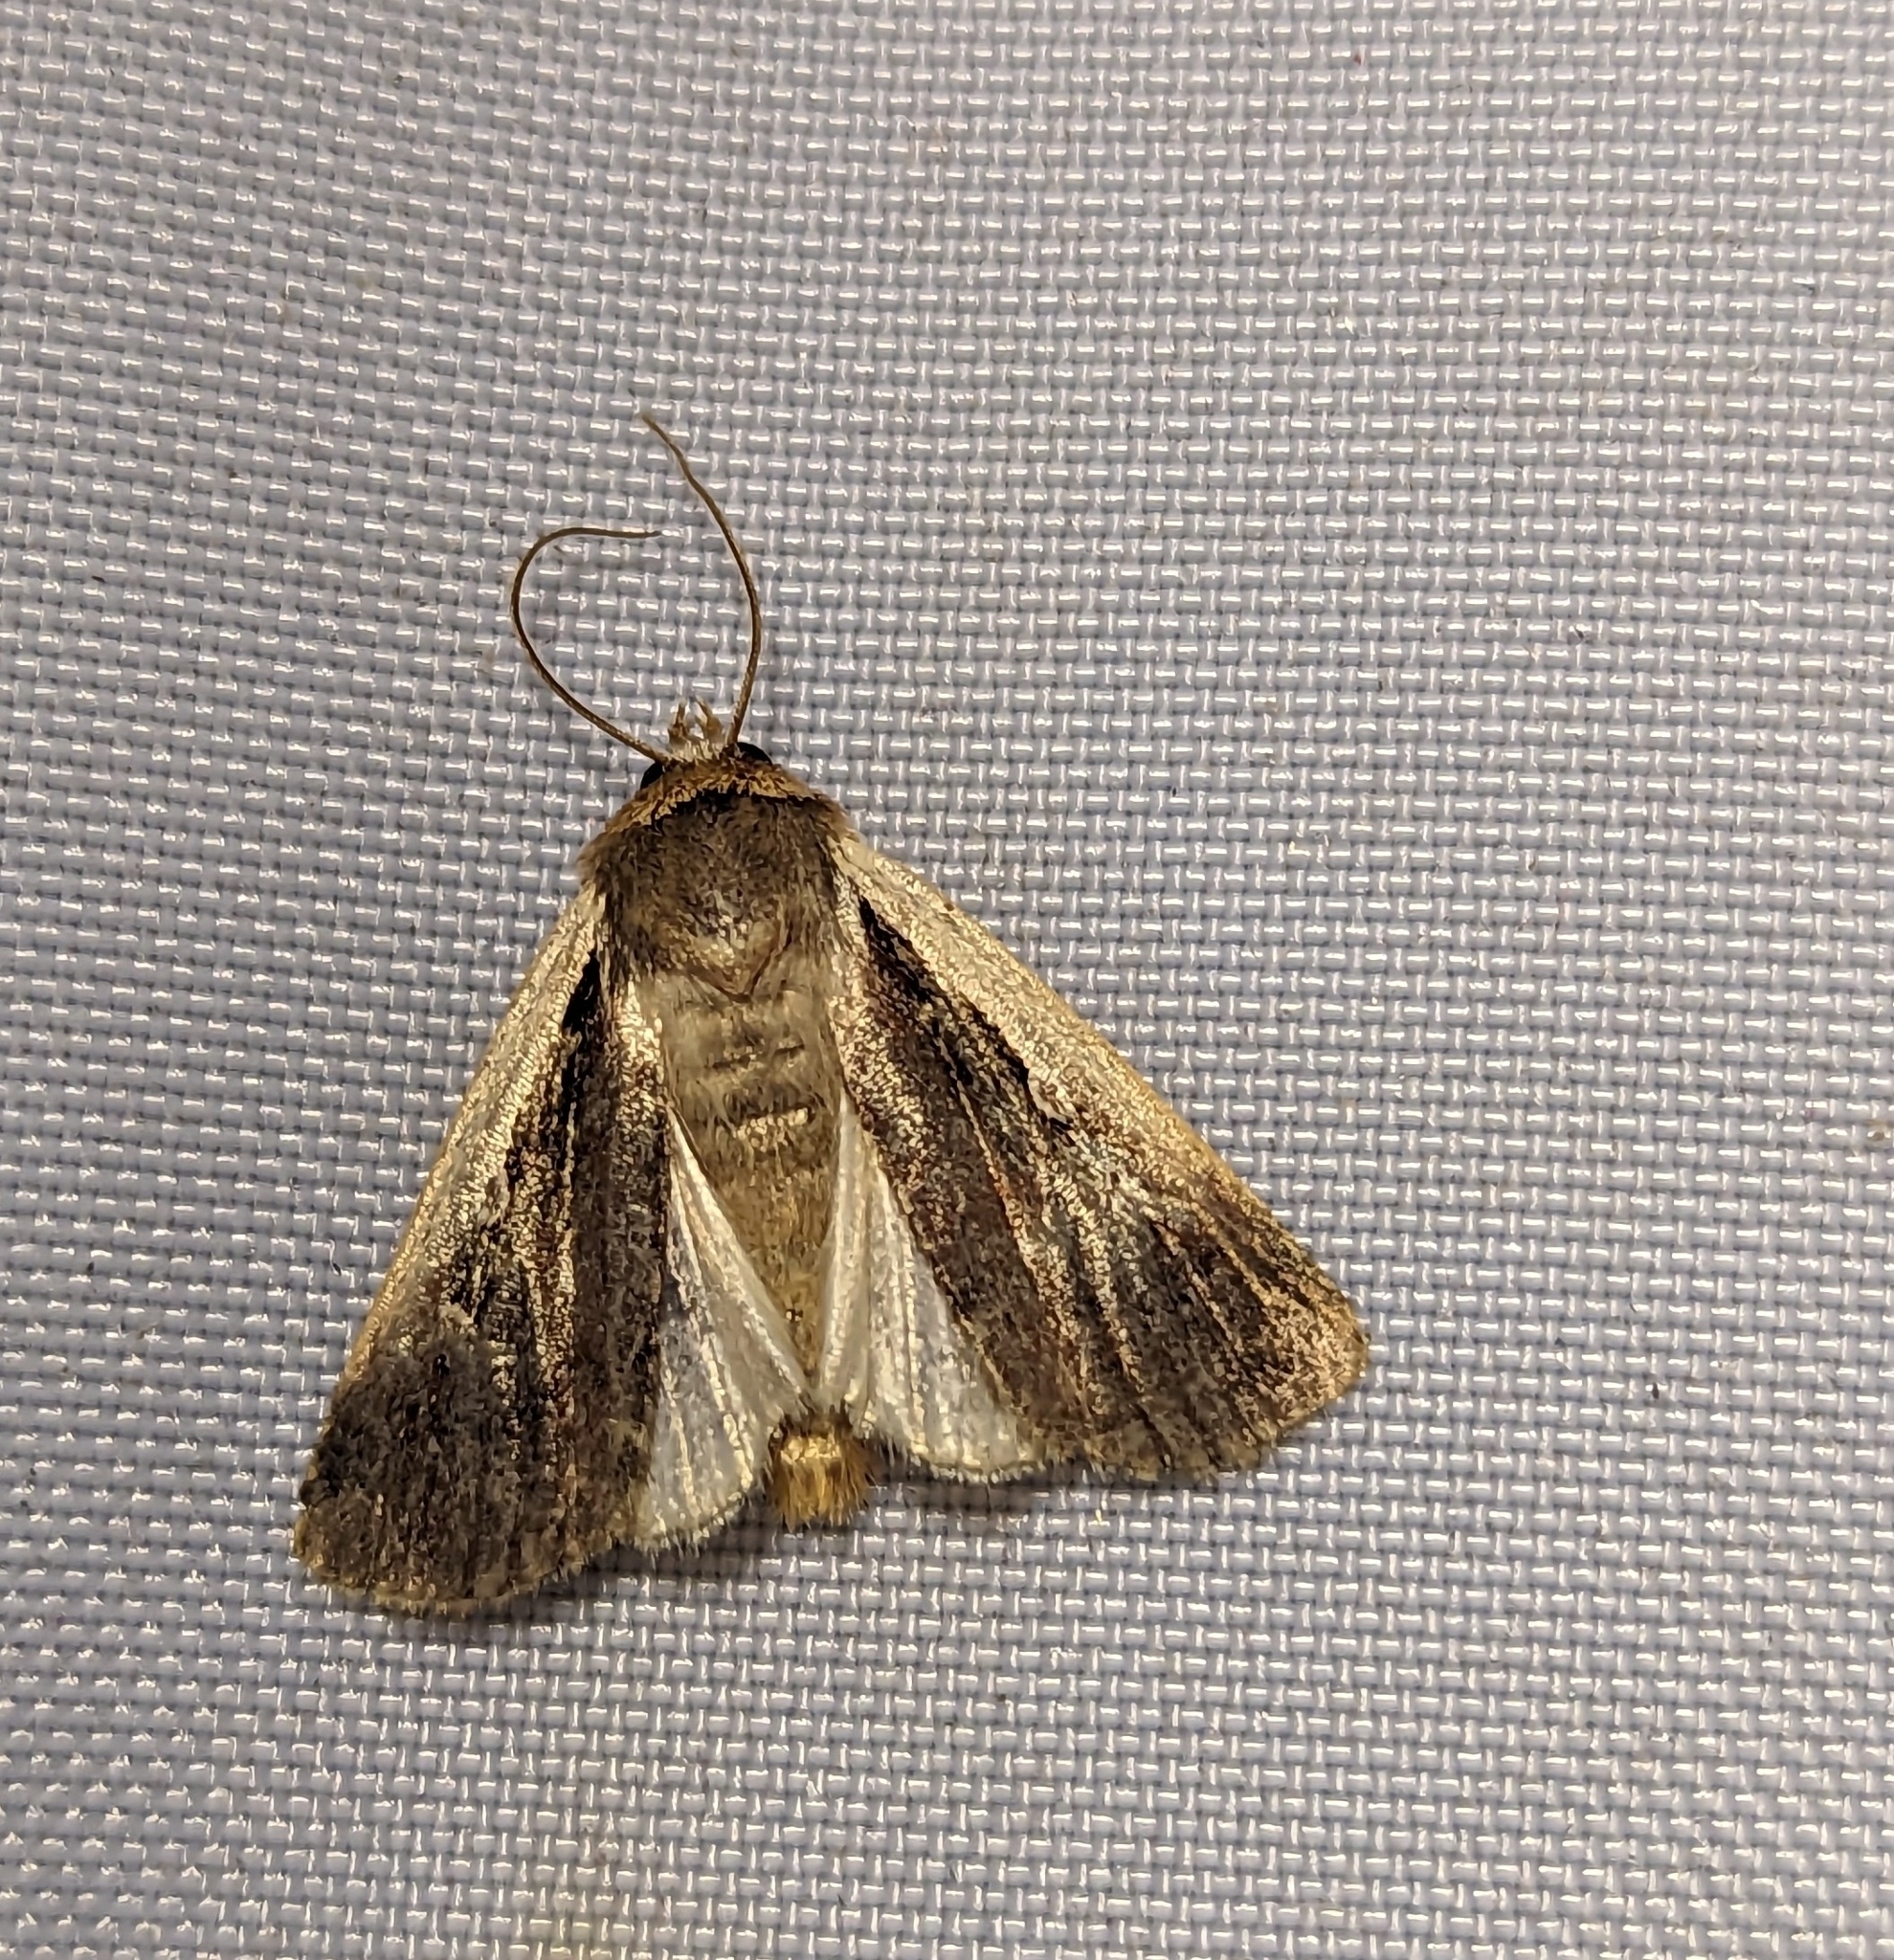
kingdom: Animalia
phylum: Arthropoda
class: Insecta
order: Lepidoptera
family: Noctuidae
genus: Ochropleura
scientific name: Ochropleura plecta
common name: Flame shoulder
